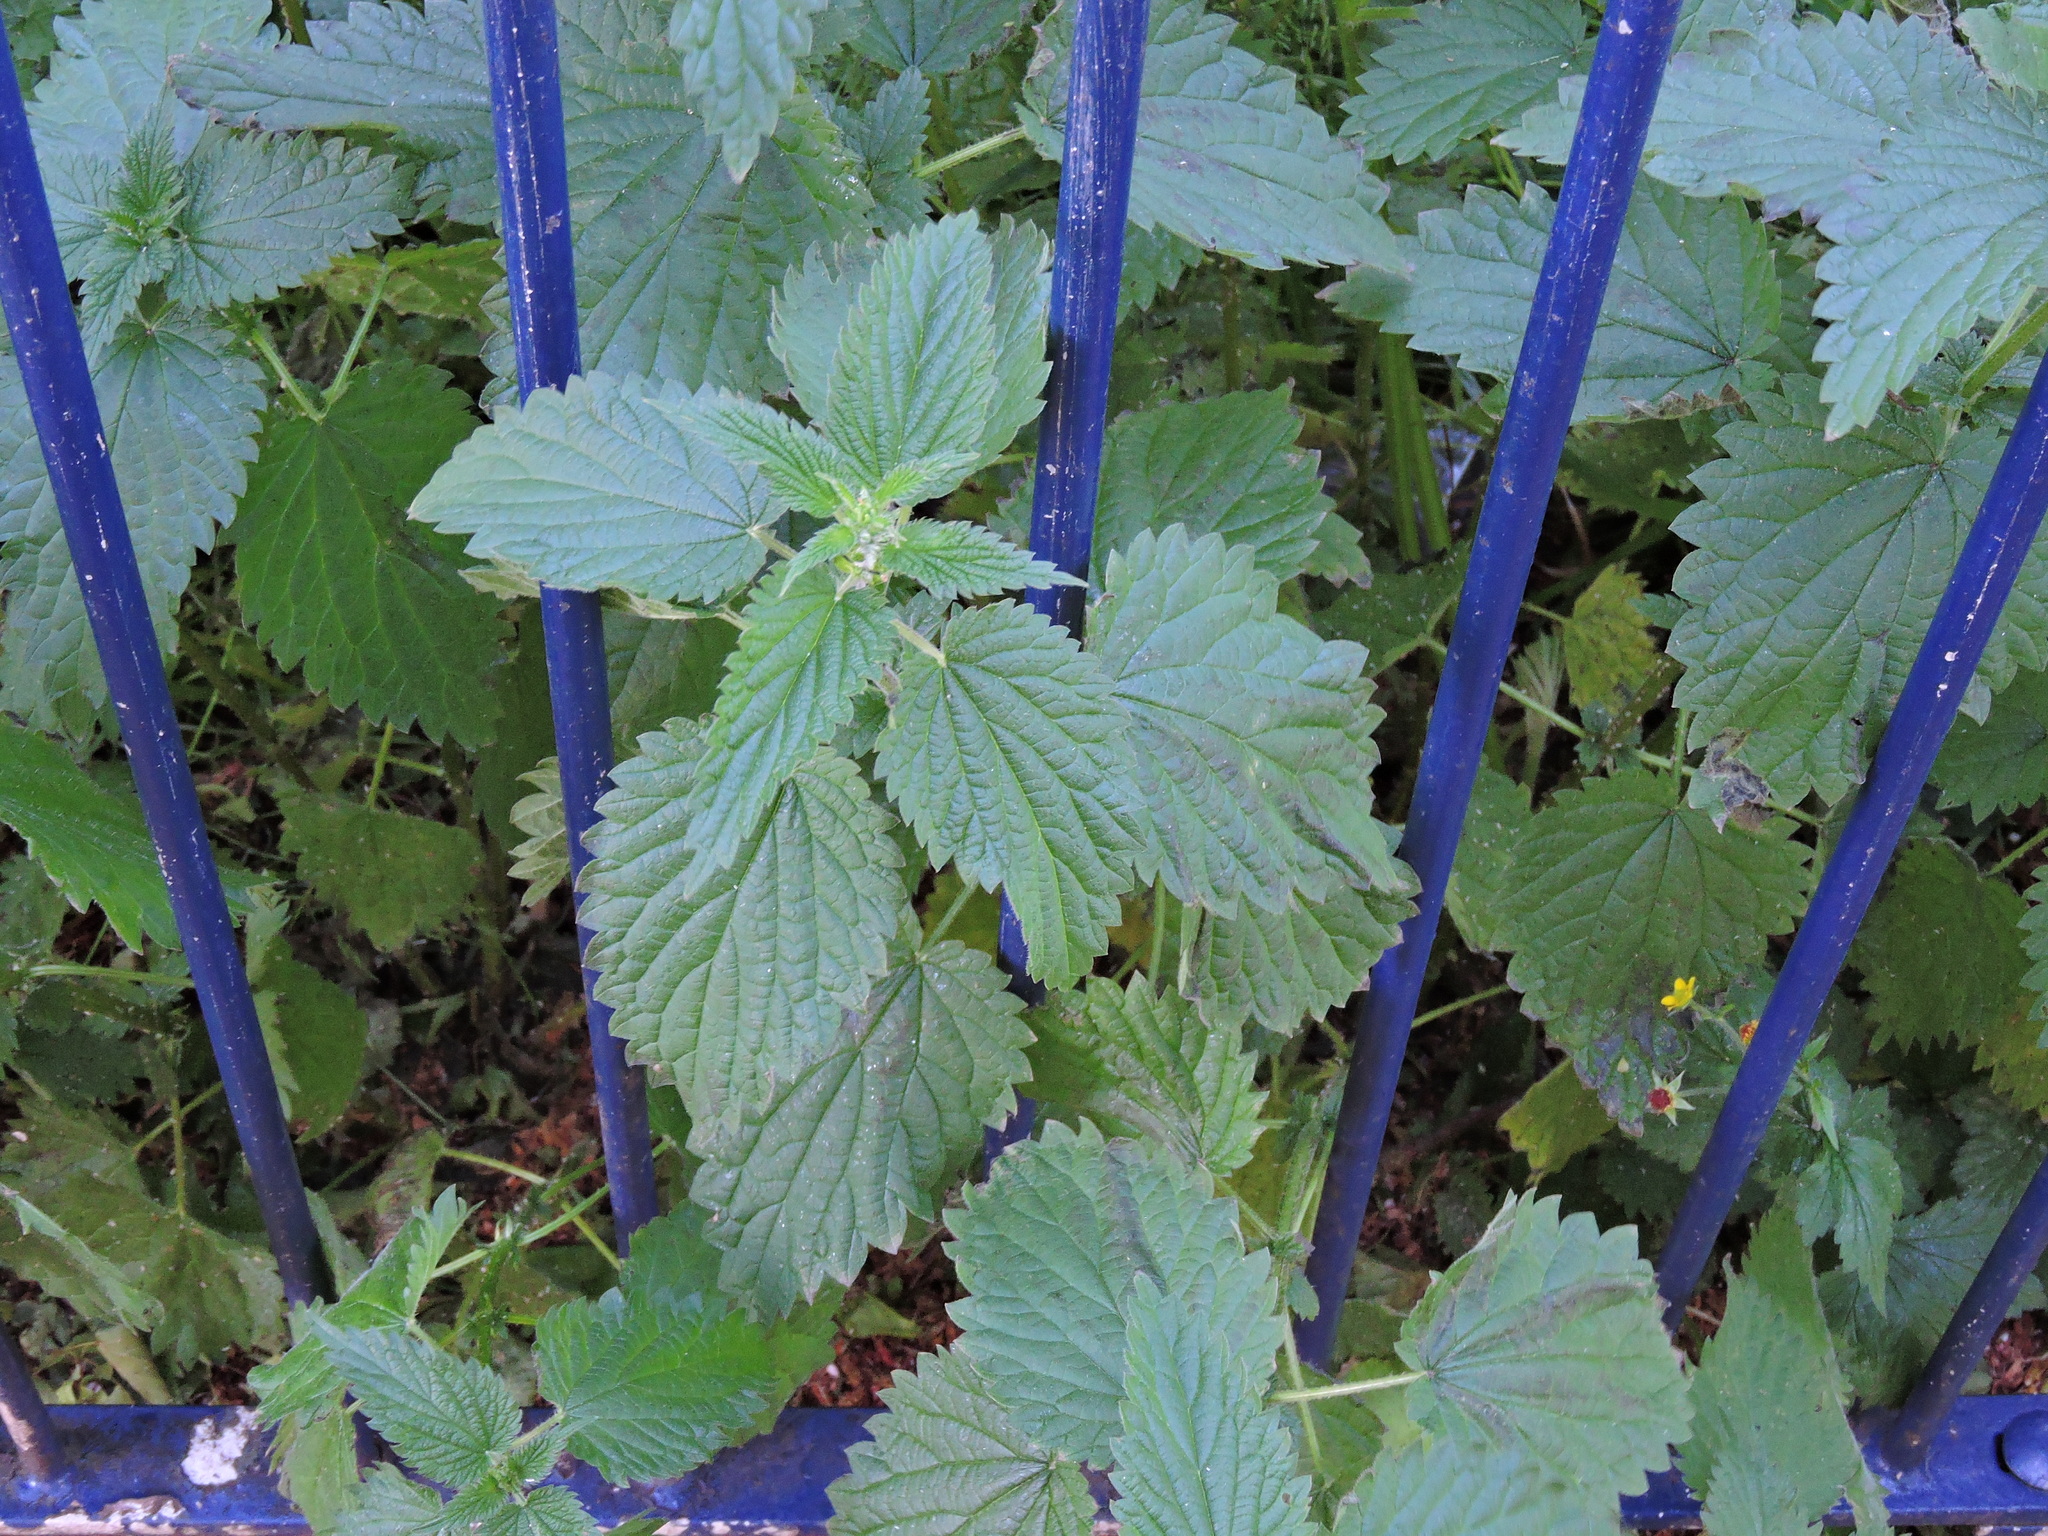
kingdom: Plantae
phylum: Tracheophyta
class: Magnoliopsida
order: Rosales
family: Urticaceae
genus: Urtica
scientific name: Urtica dioica
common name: Common nettle
